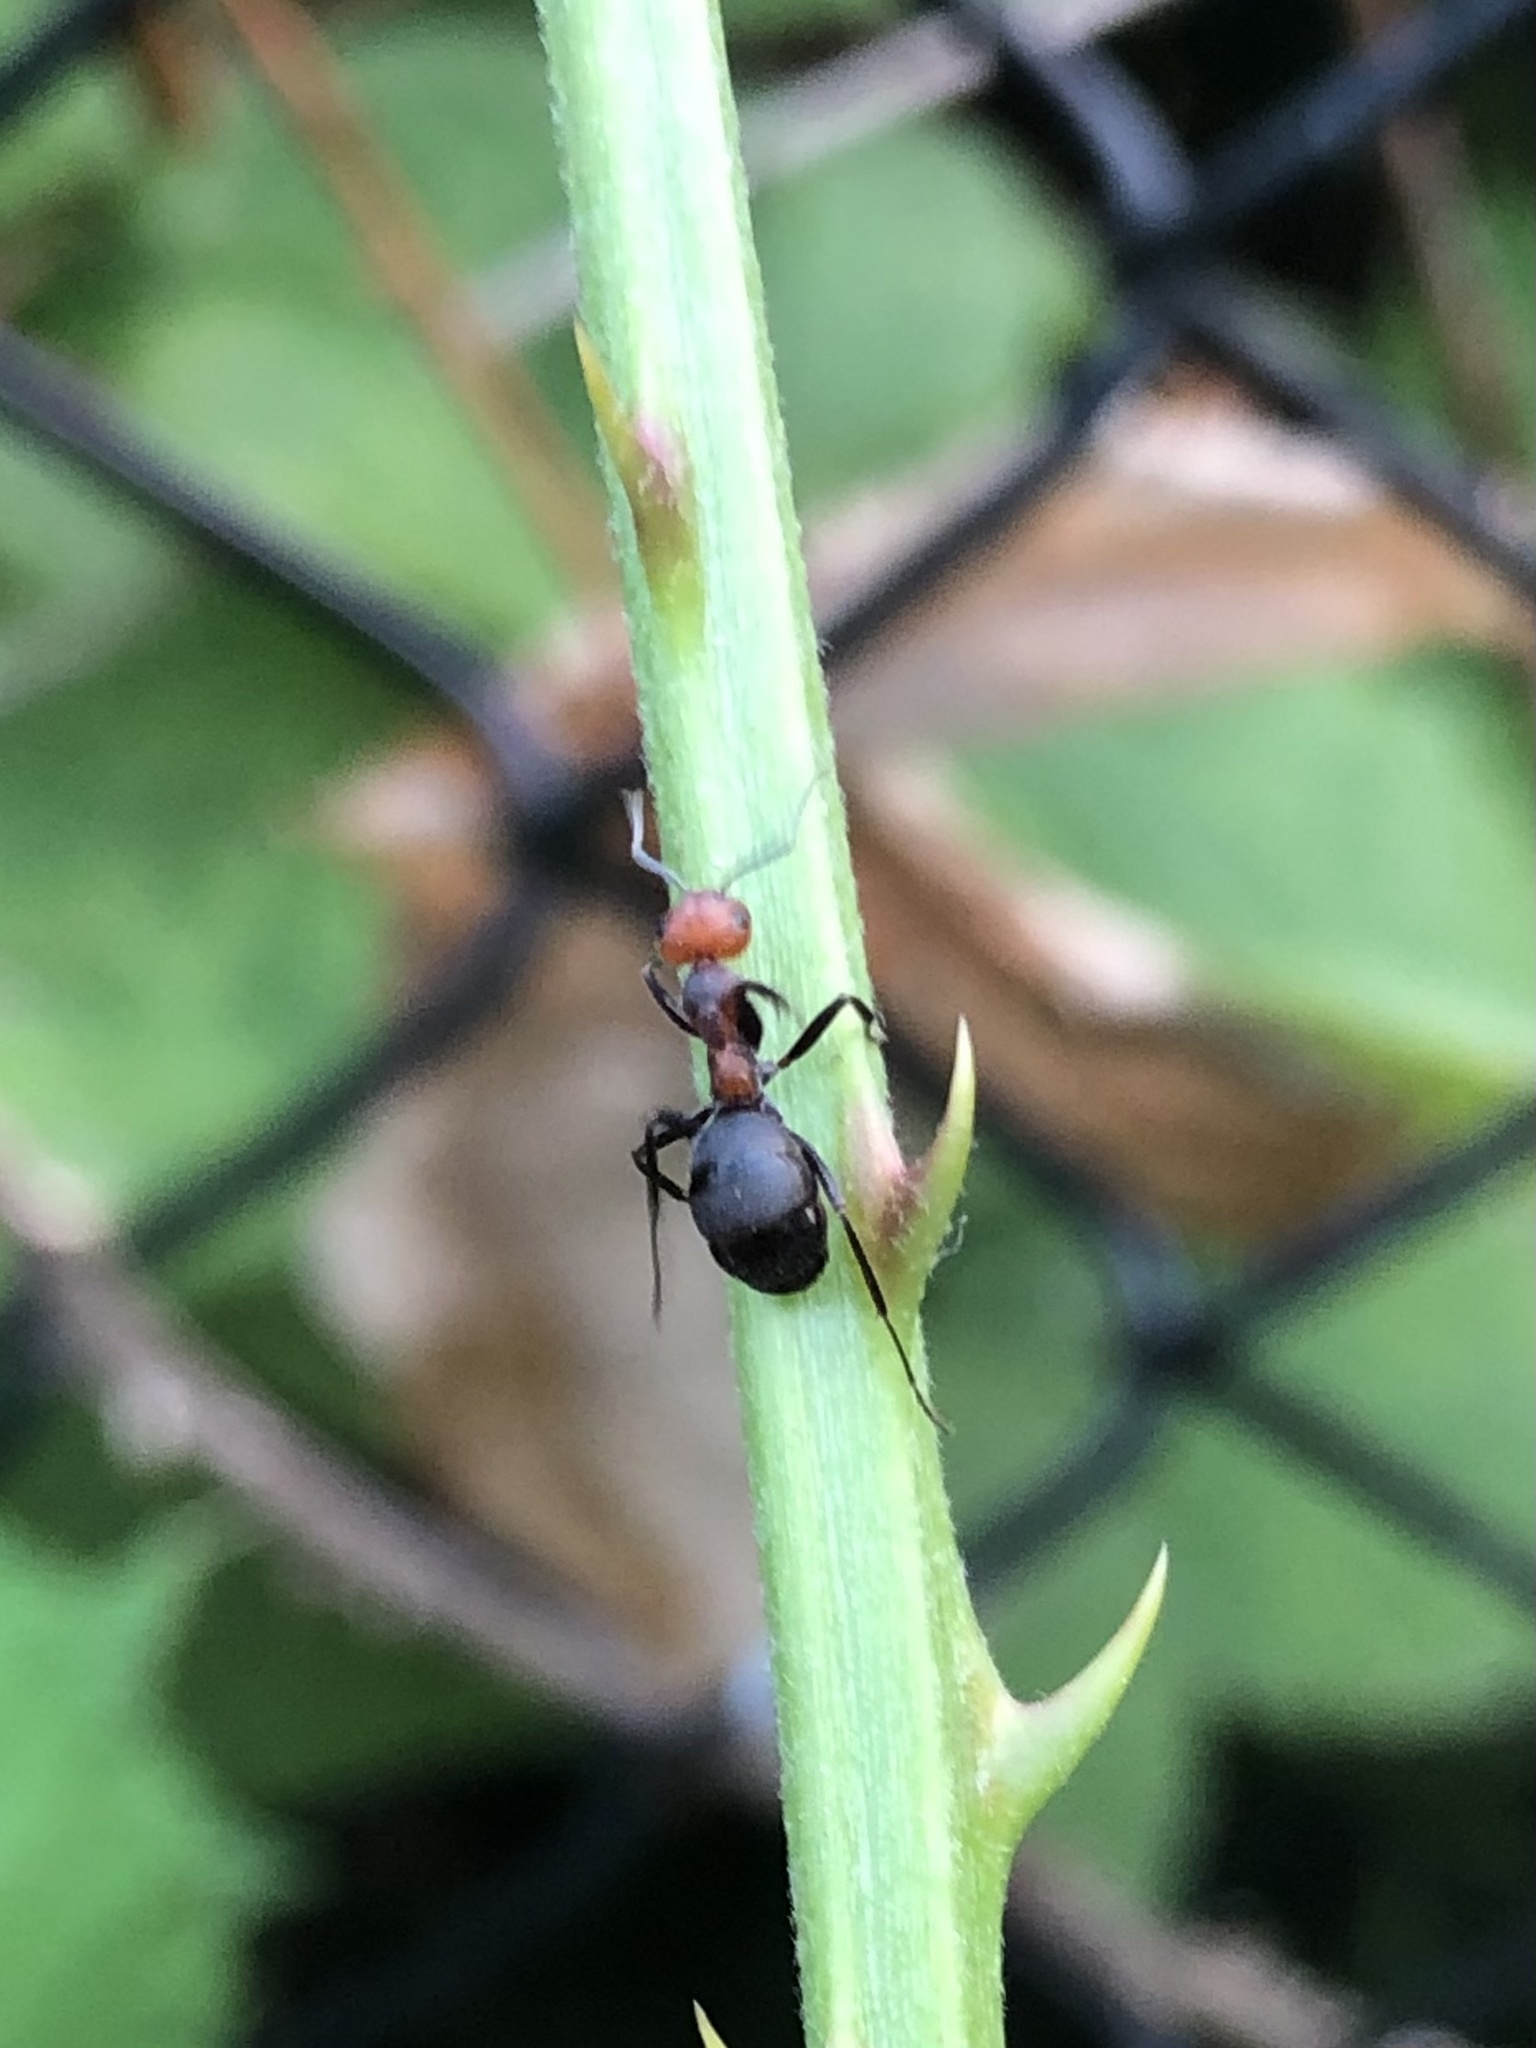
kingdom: Animalia
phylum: Arthropoda
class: Insecta
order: Hymenoptera
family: Formicidae
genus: Formica
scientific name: Formica obscuripes
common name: Western thatching ant
